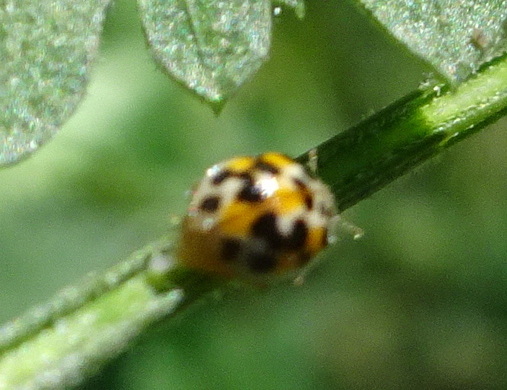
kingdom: Animalia
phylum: Arthropoda
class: Insecta
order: Coleoptera
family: Coccinellidae
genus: Psyllobora
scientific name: Psyllobora vigintimaculata
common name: Ladybird beetle
